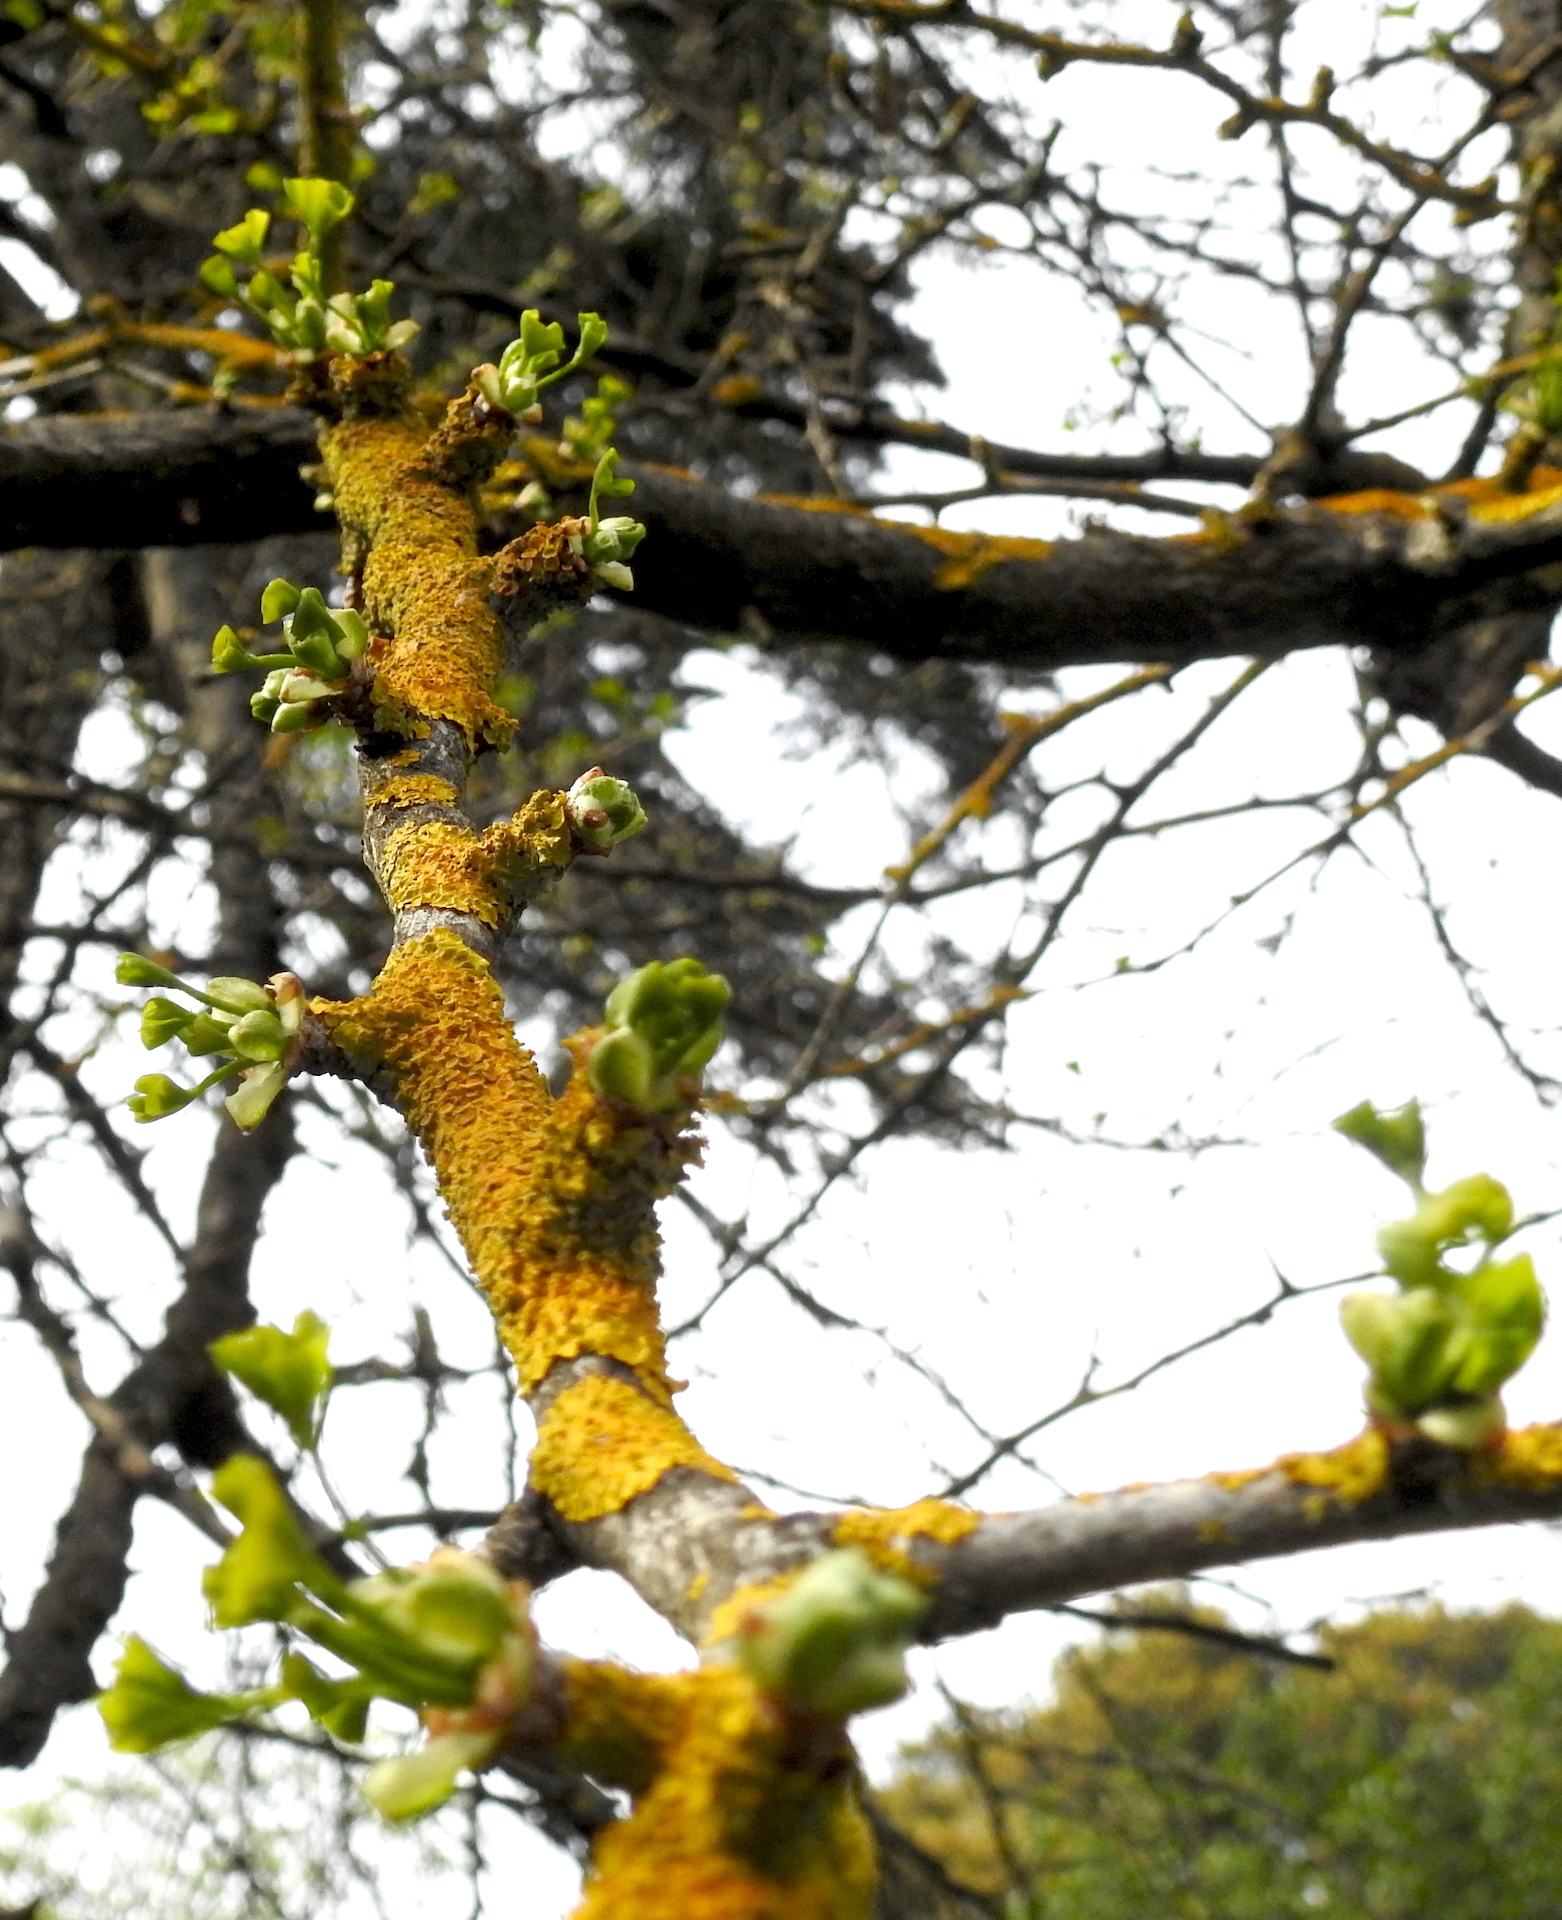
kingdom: Fungi
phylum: Ascomycota
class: Lecanoromycetes
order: Teloschistales
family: Teloschistaceae
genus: Xanthoria
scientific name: Xanthoria parietina
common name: Common orange lichen
